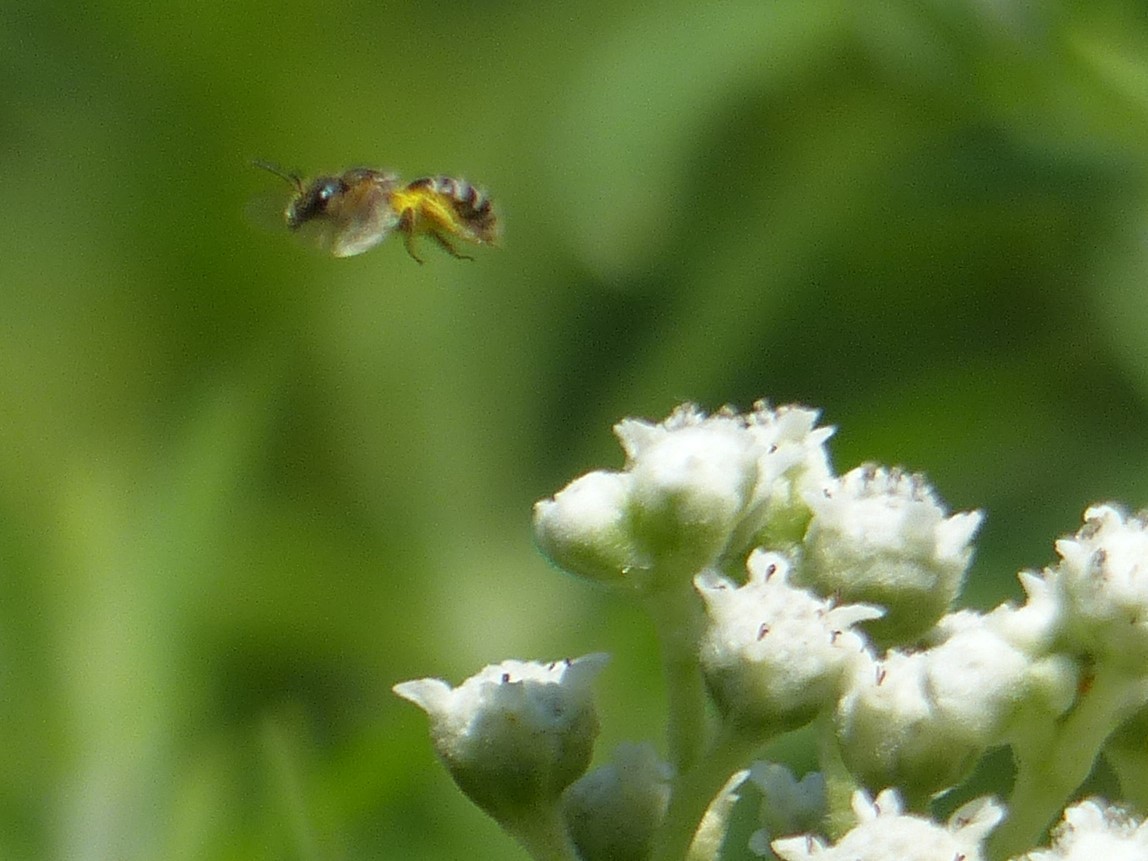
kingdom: Animalia
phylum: Arthropoda
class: Insecta
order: Hymenoptera
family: Halictidae
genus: Halictus
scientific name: Halictus ligatus
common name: Ligated furrow bee
